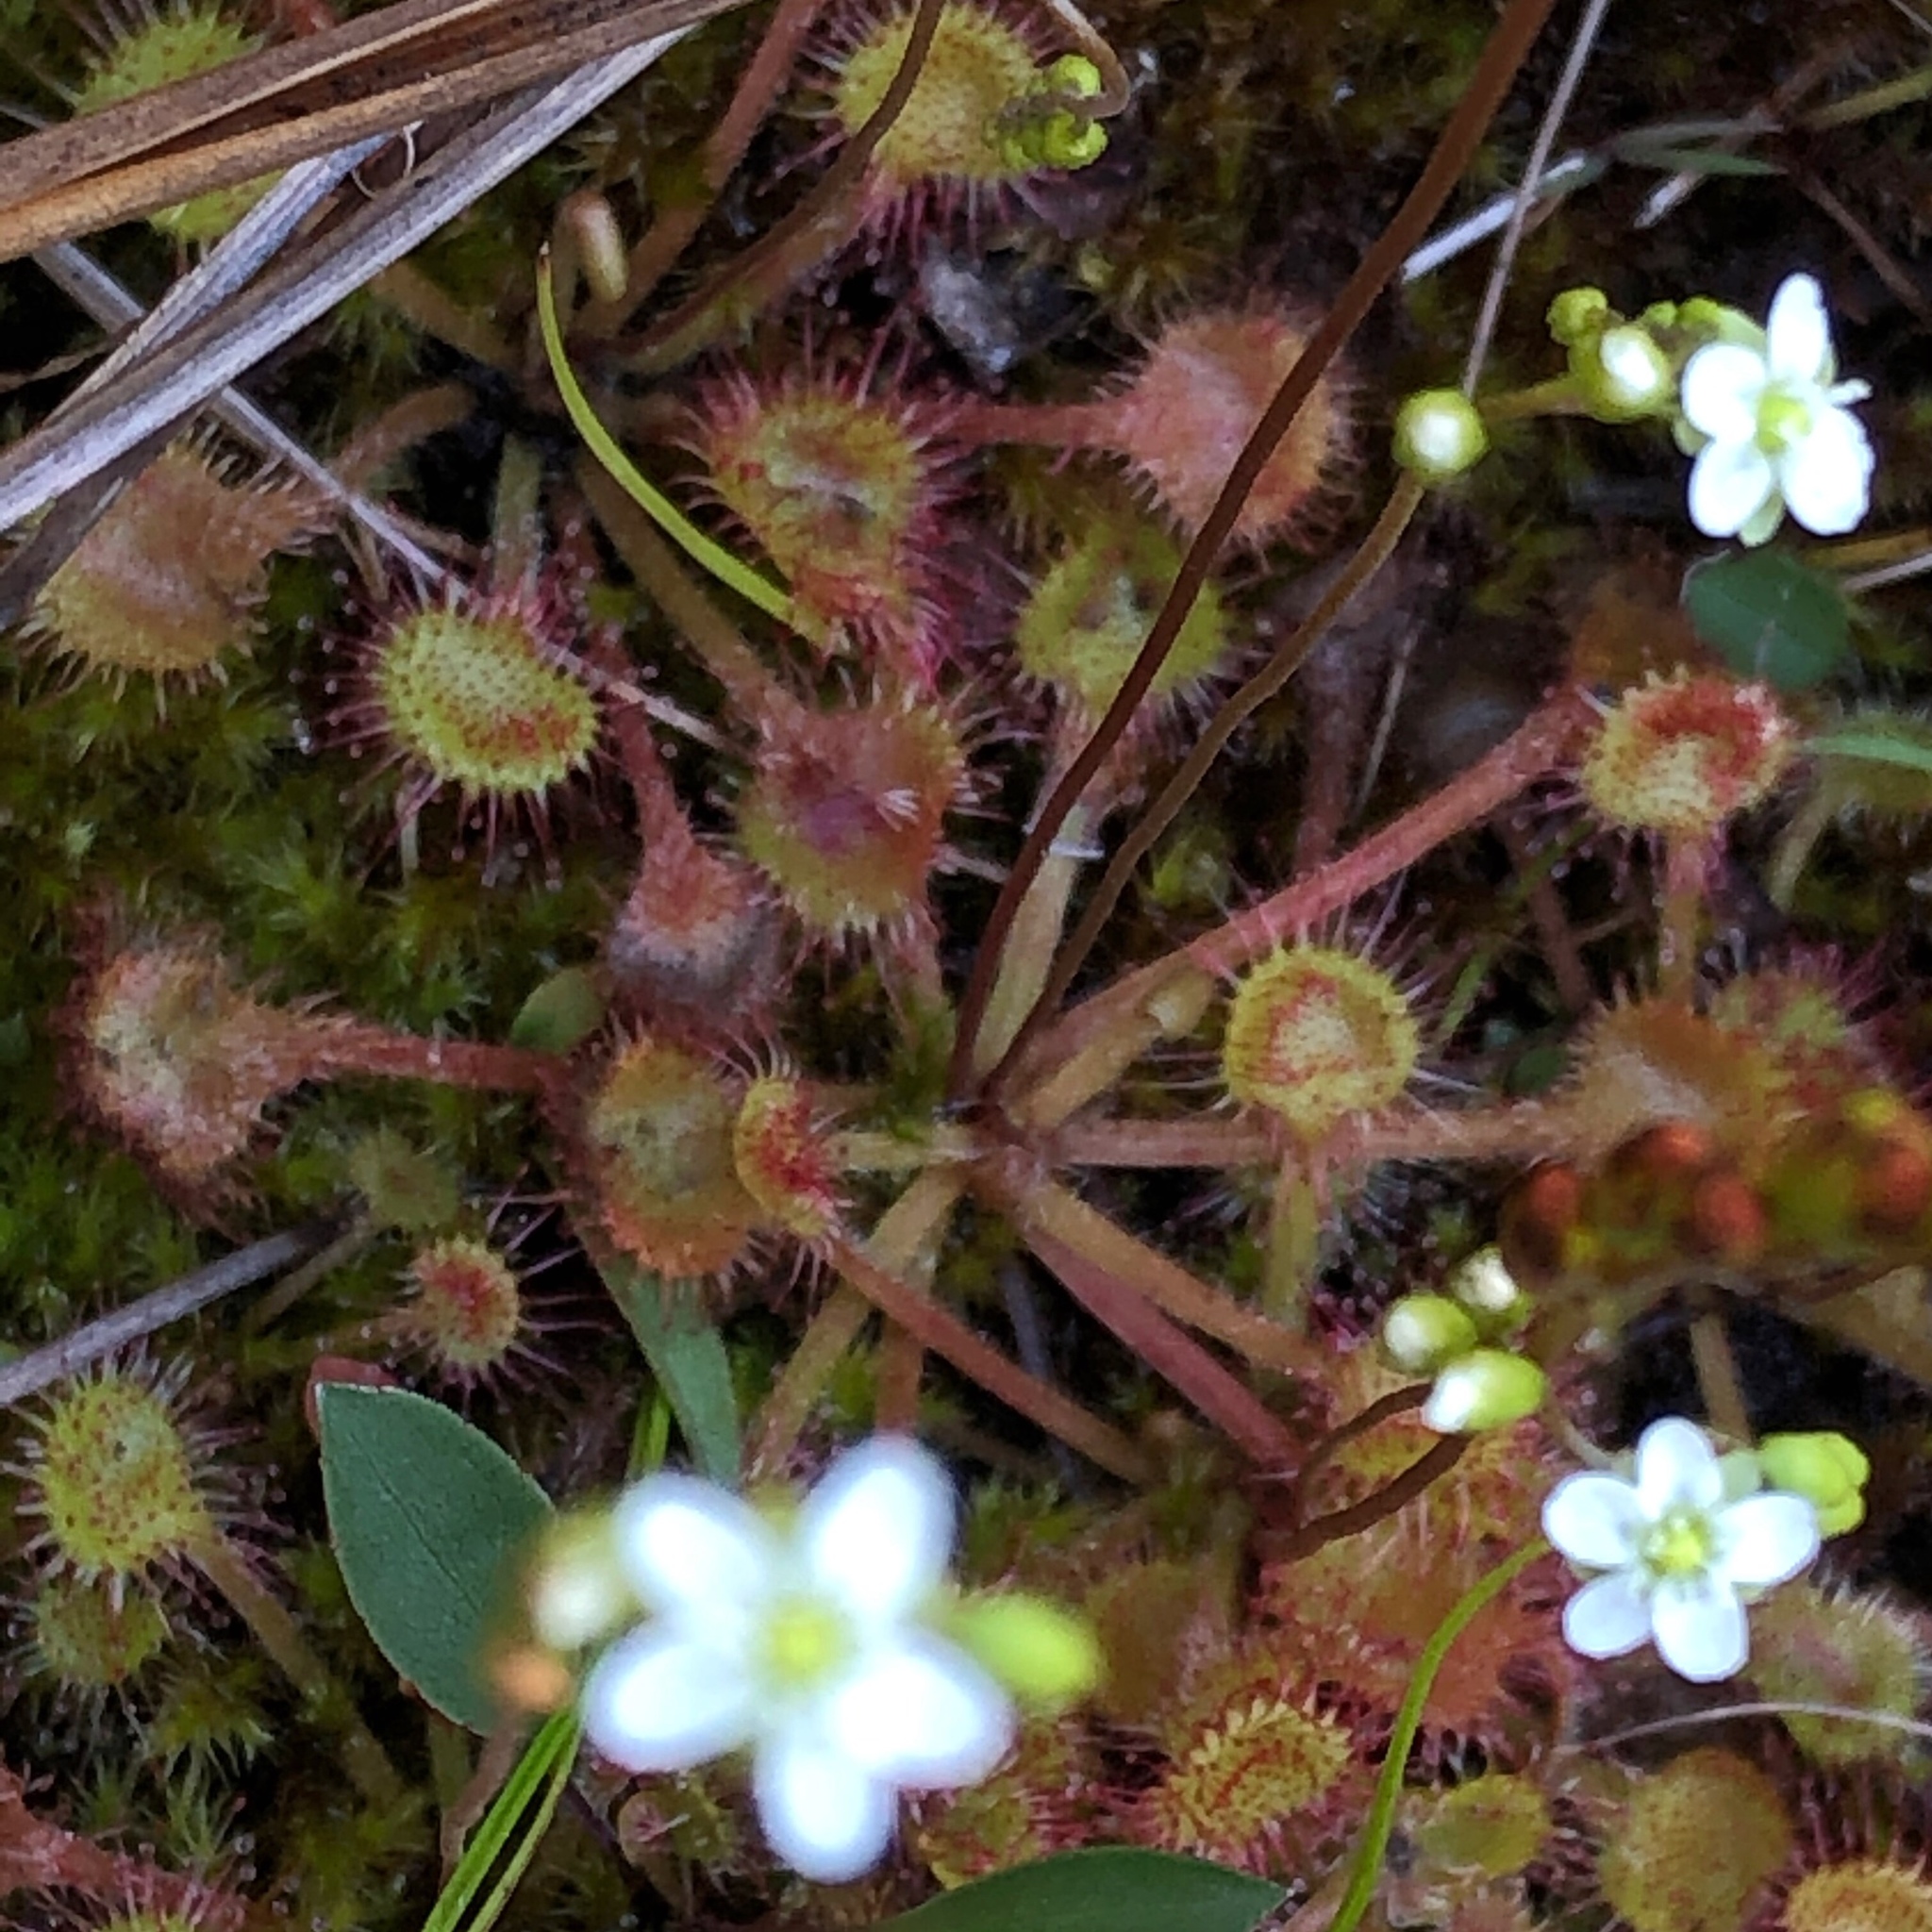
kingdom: Plantae
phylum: Tracheophyta
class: Magnoliopsida
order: Caryophyllales
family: Droseraceae
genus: Drosera
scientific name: Drosera rotundifolia
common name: Round-leaved sundew
